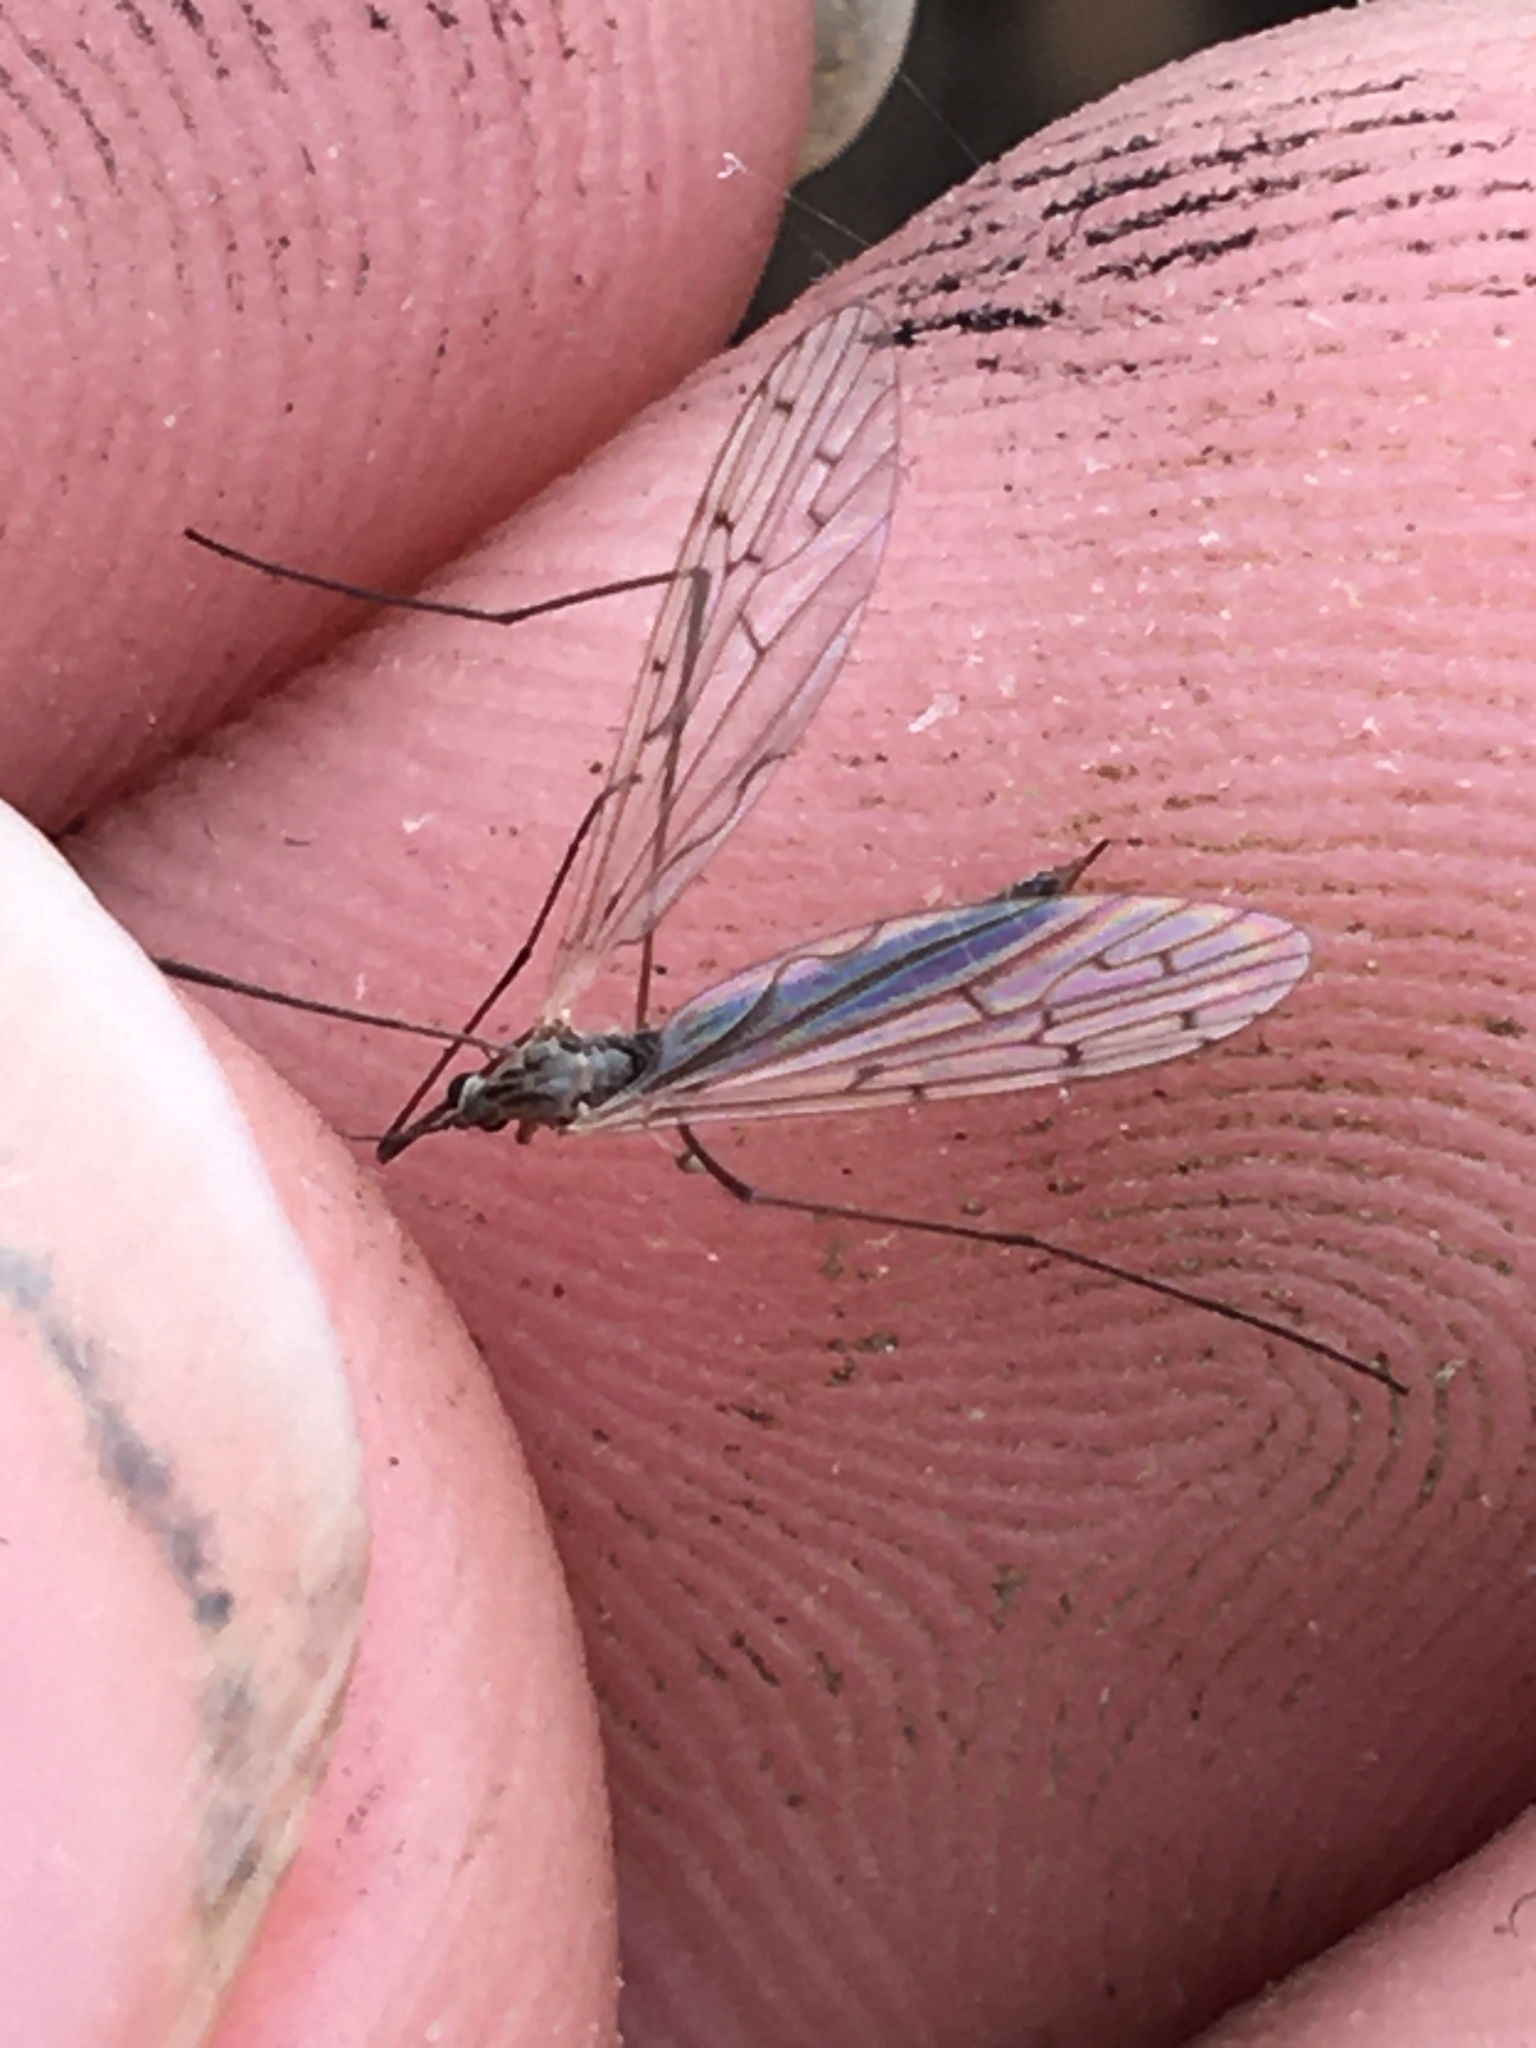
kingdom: Animalia
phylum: Arthropoda
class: Insecta
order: Diptera
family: Limoniidae
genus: Symplecta
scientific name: Symplecta cana
